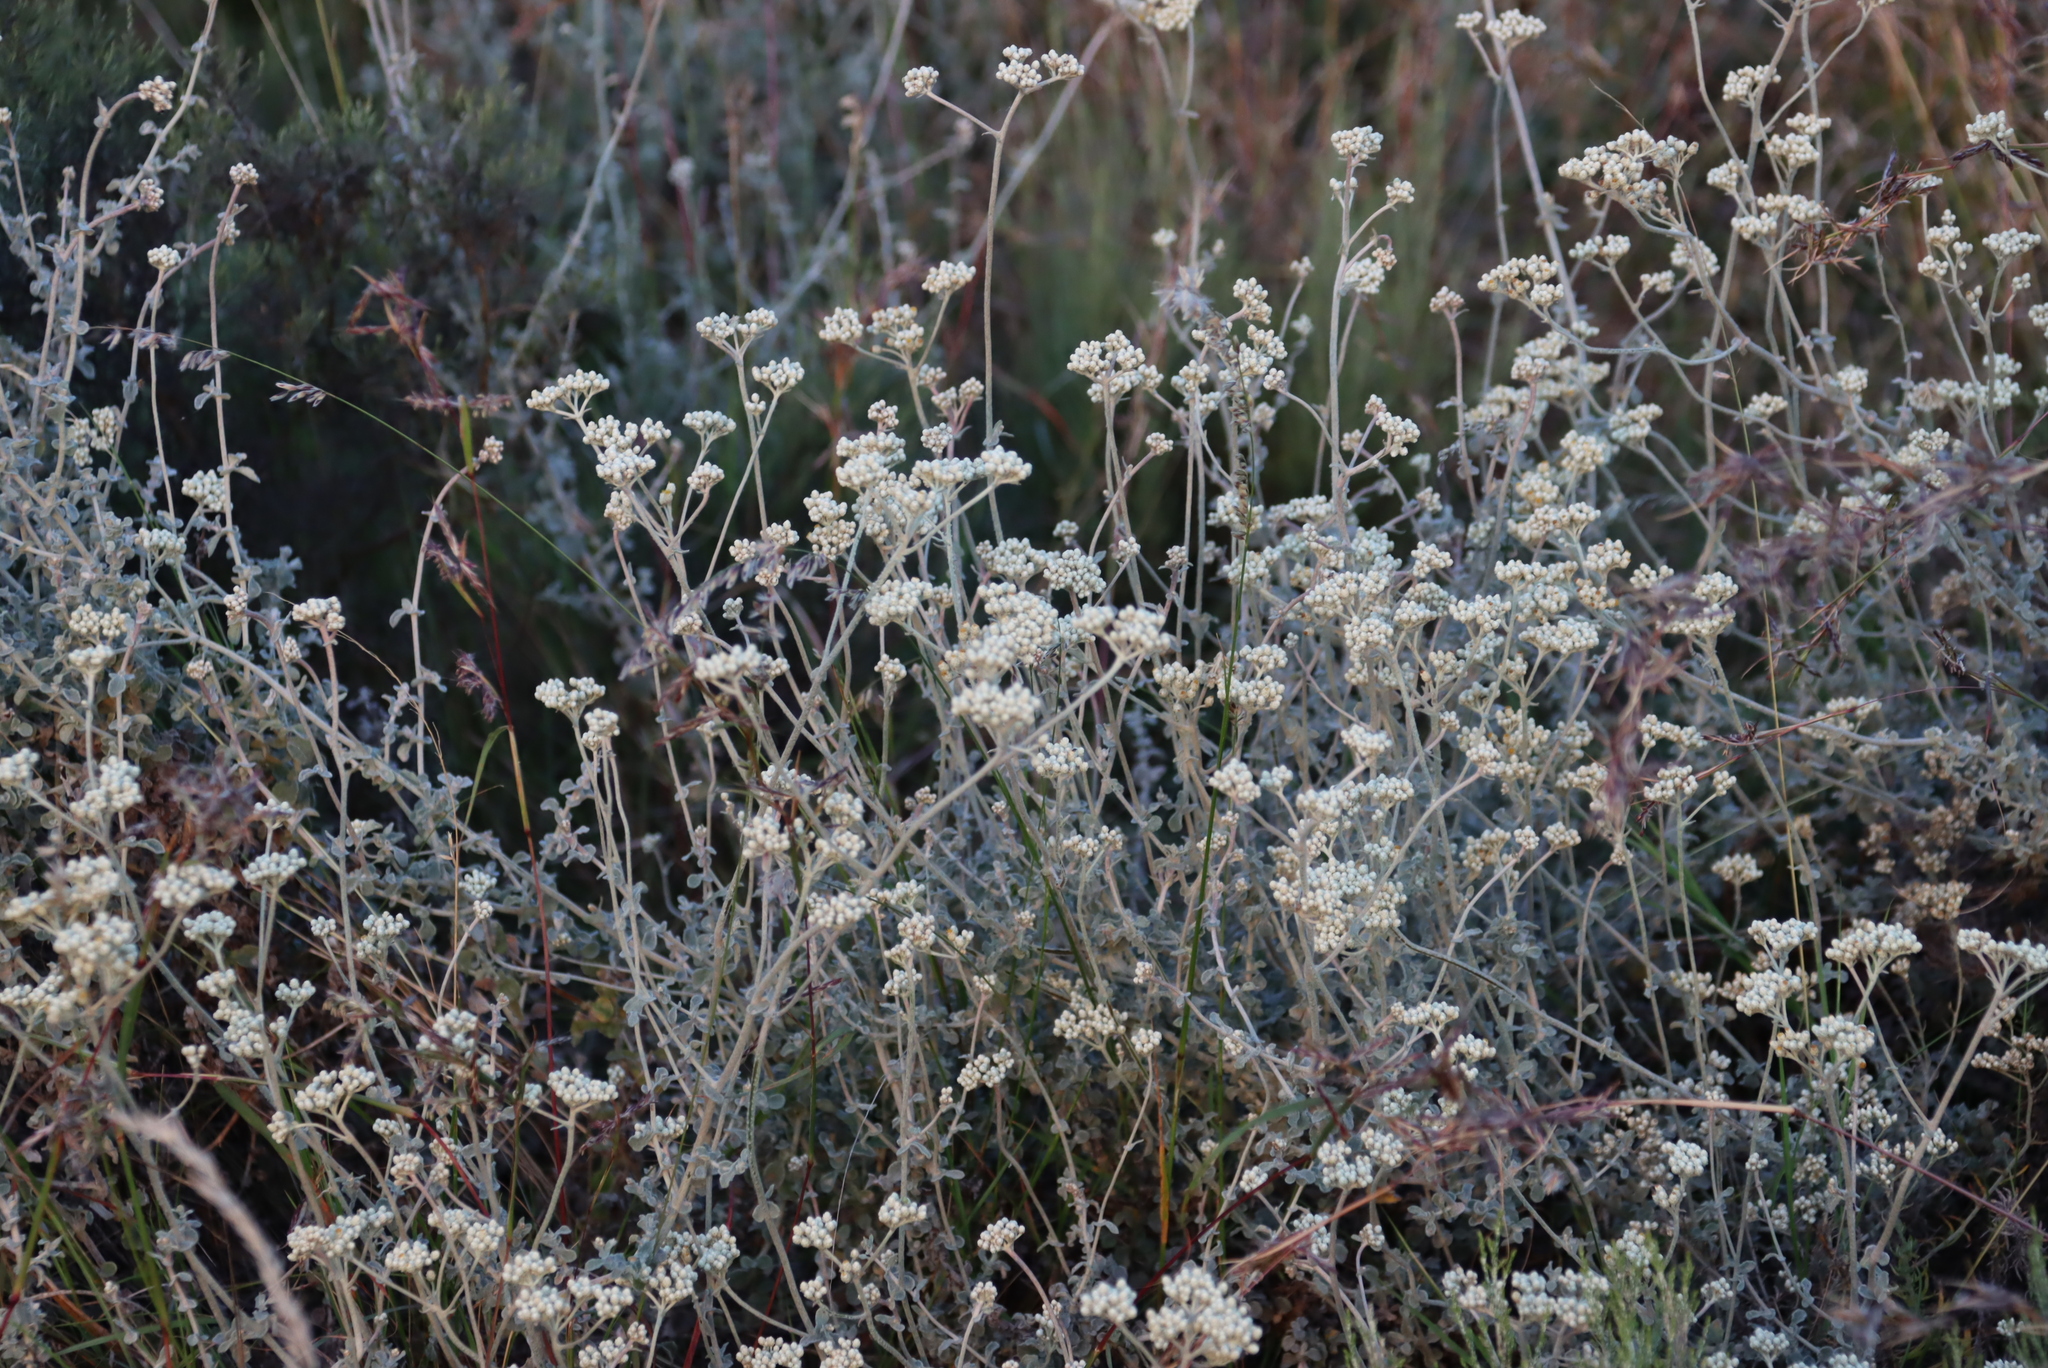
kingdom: Plantae
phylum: Tracheophyta
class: Magnoliopsida
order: Asterales
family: Asteraceae
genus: Helichrysum
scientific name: Helichrysum patulum
